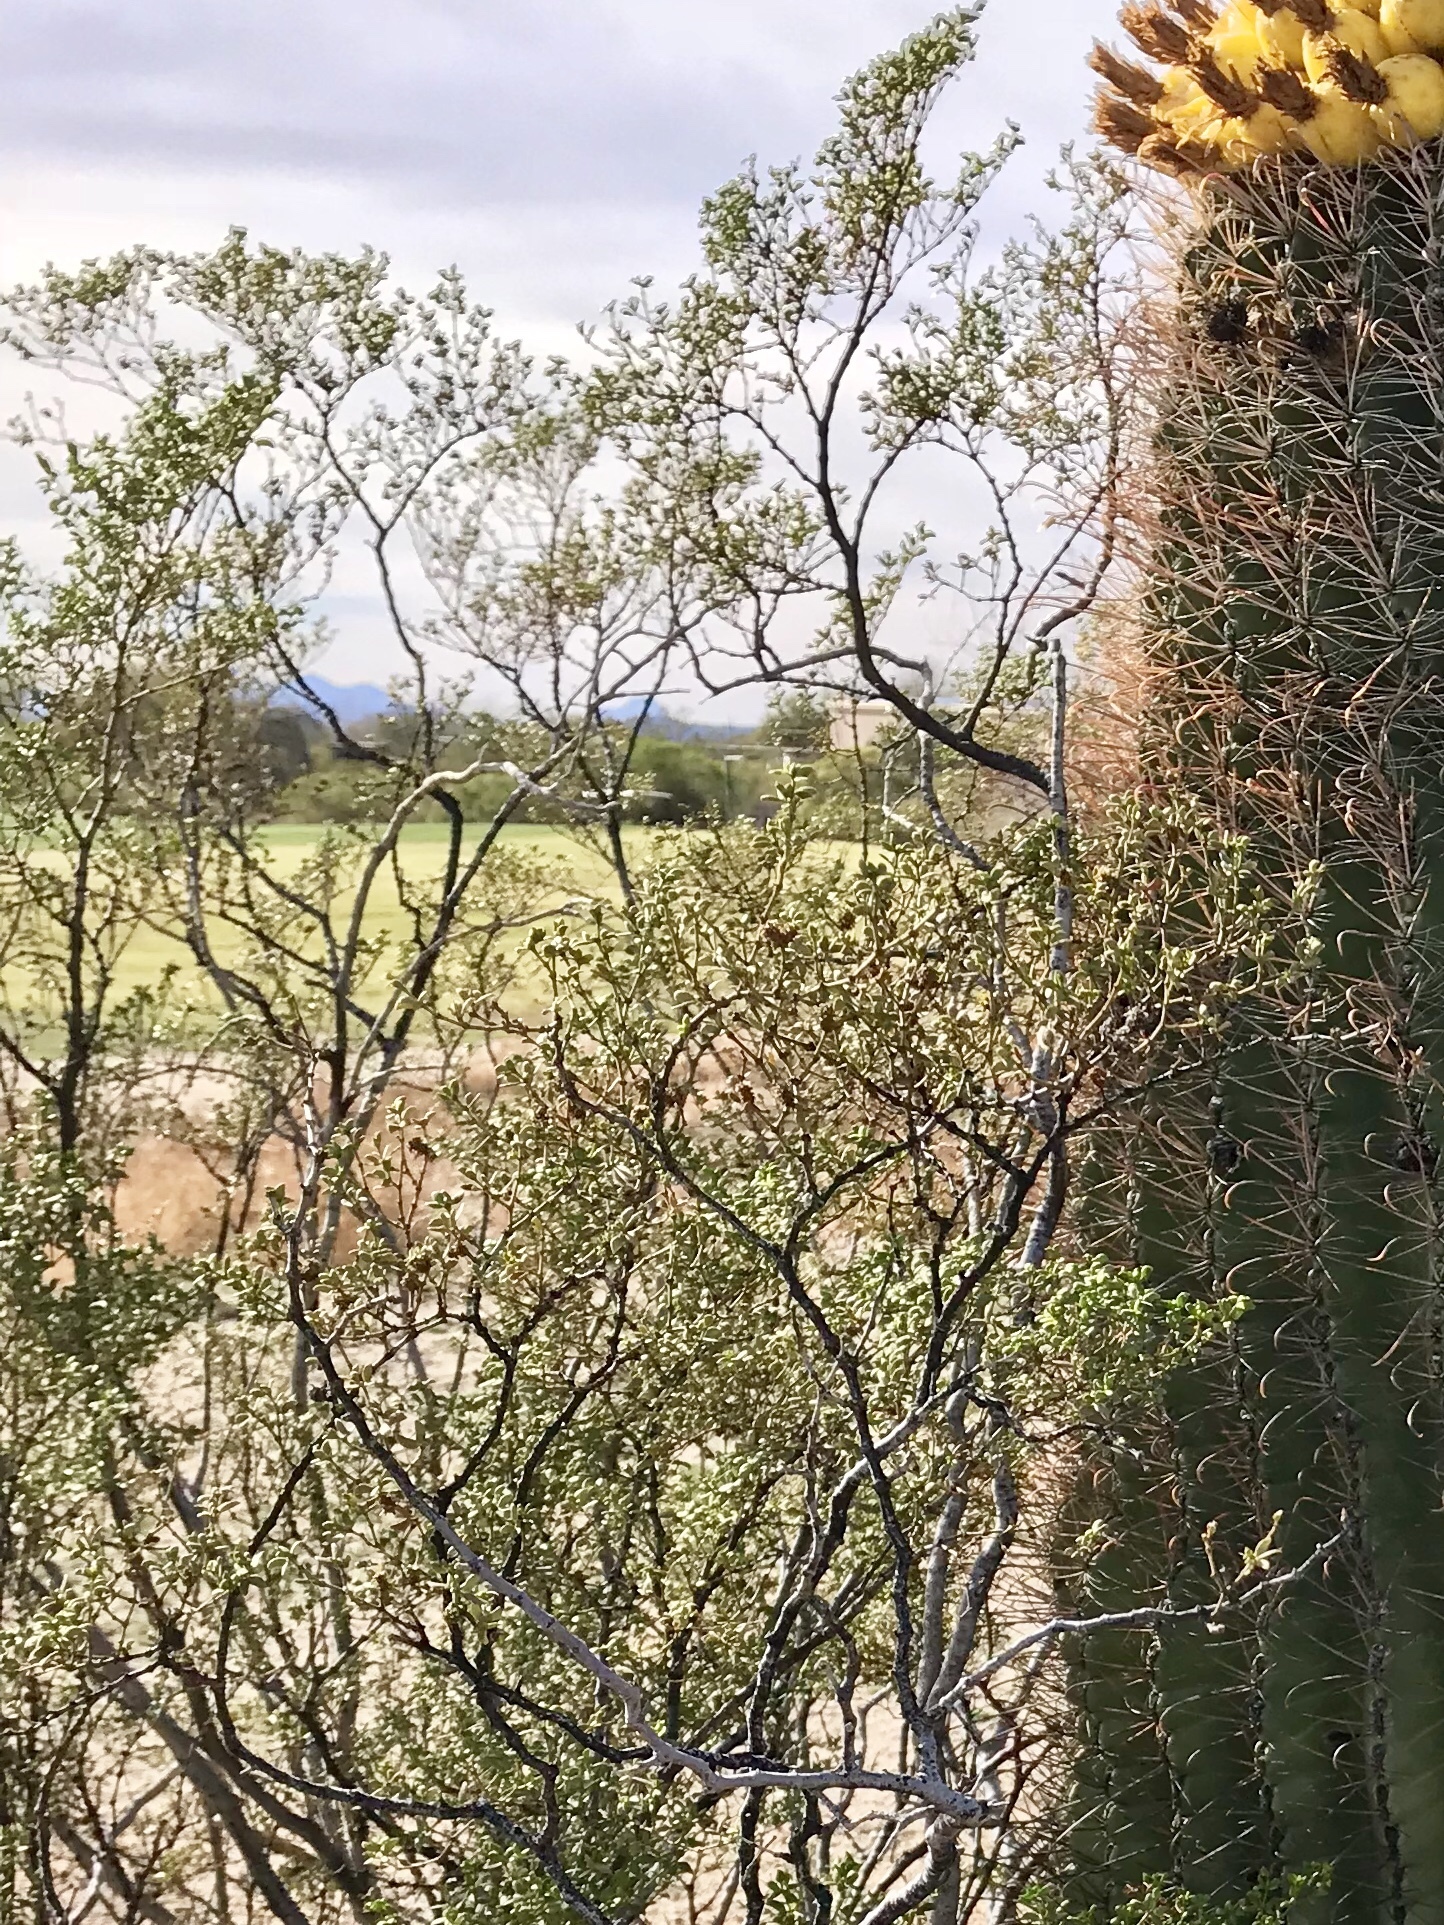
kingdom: Plantae
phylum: Tracheophyta
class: Magnoliopsida
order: Zygophyllales
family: Zygophyllaceae
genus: Larrea
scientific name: Larrea tridentata
